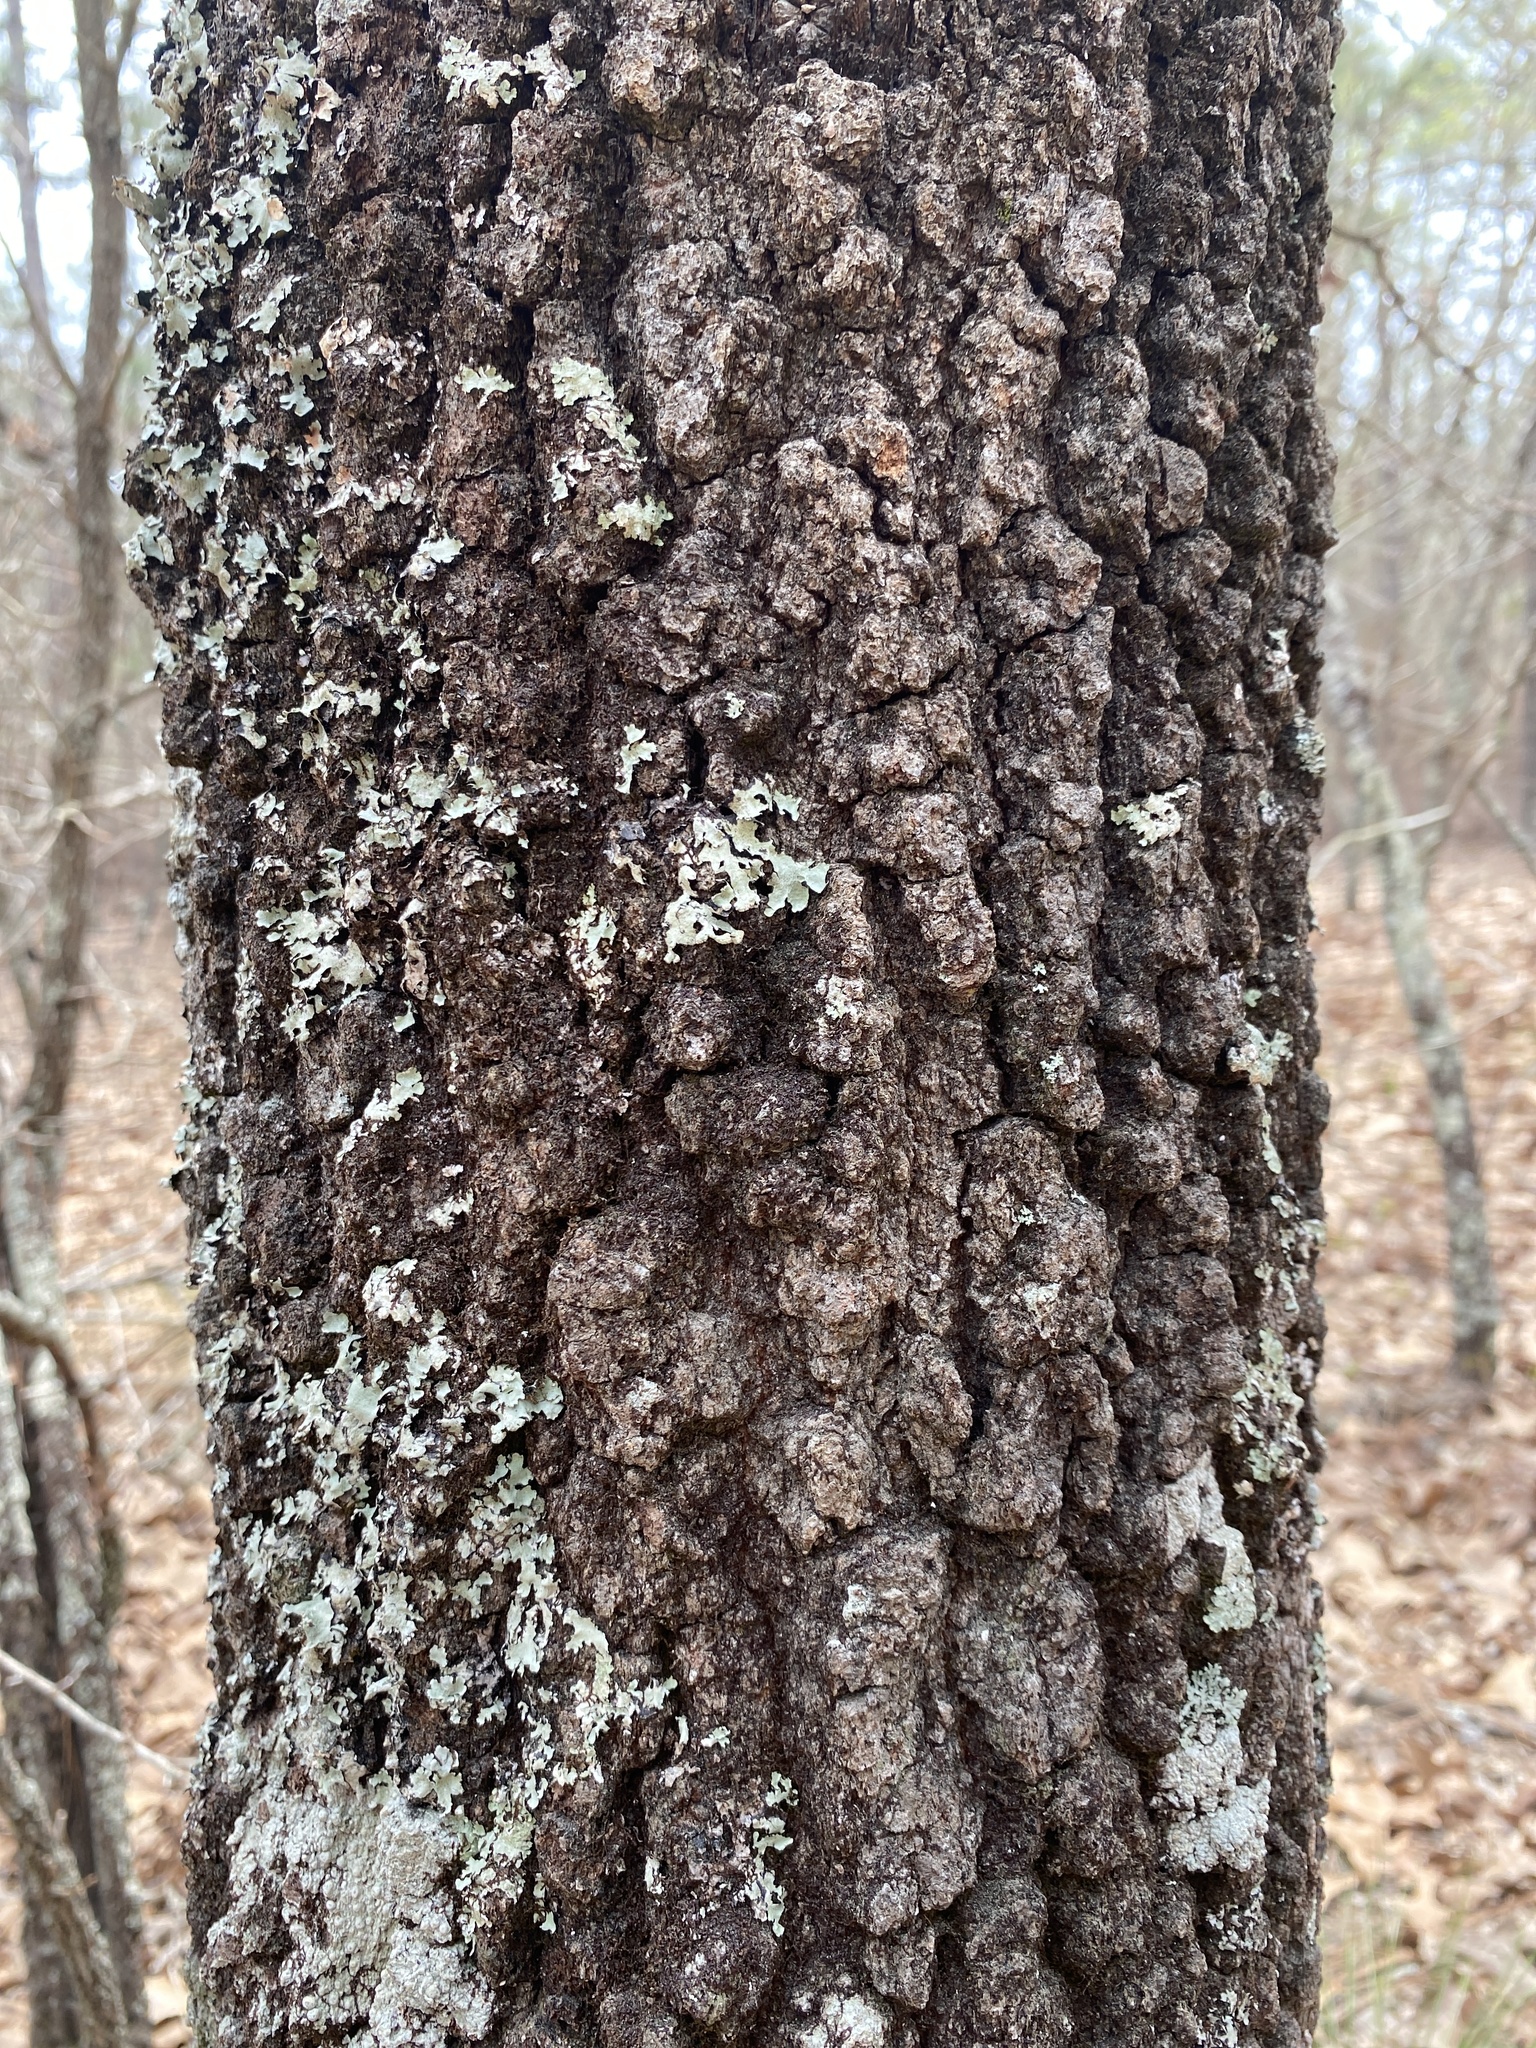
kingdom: Plantae
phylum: Tracheophyta
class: Magnoliopsida
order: Fagales
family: Fagaceae
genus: Quercus
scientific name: Quercus marilandica
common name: Blackjack oak
